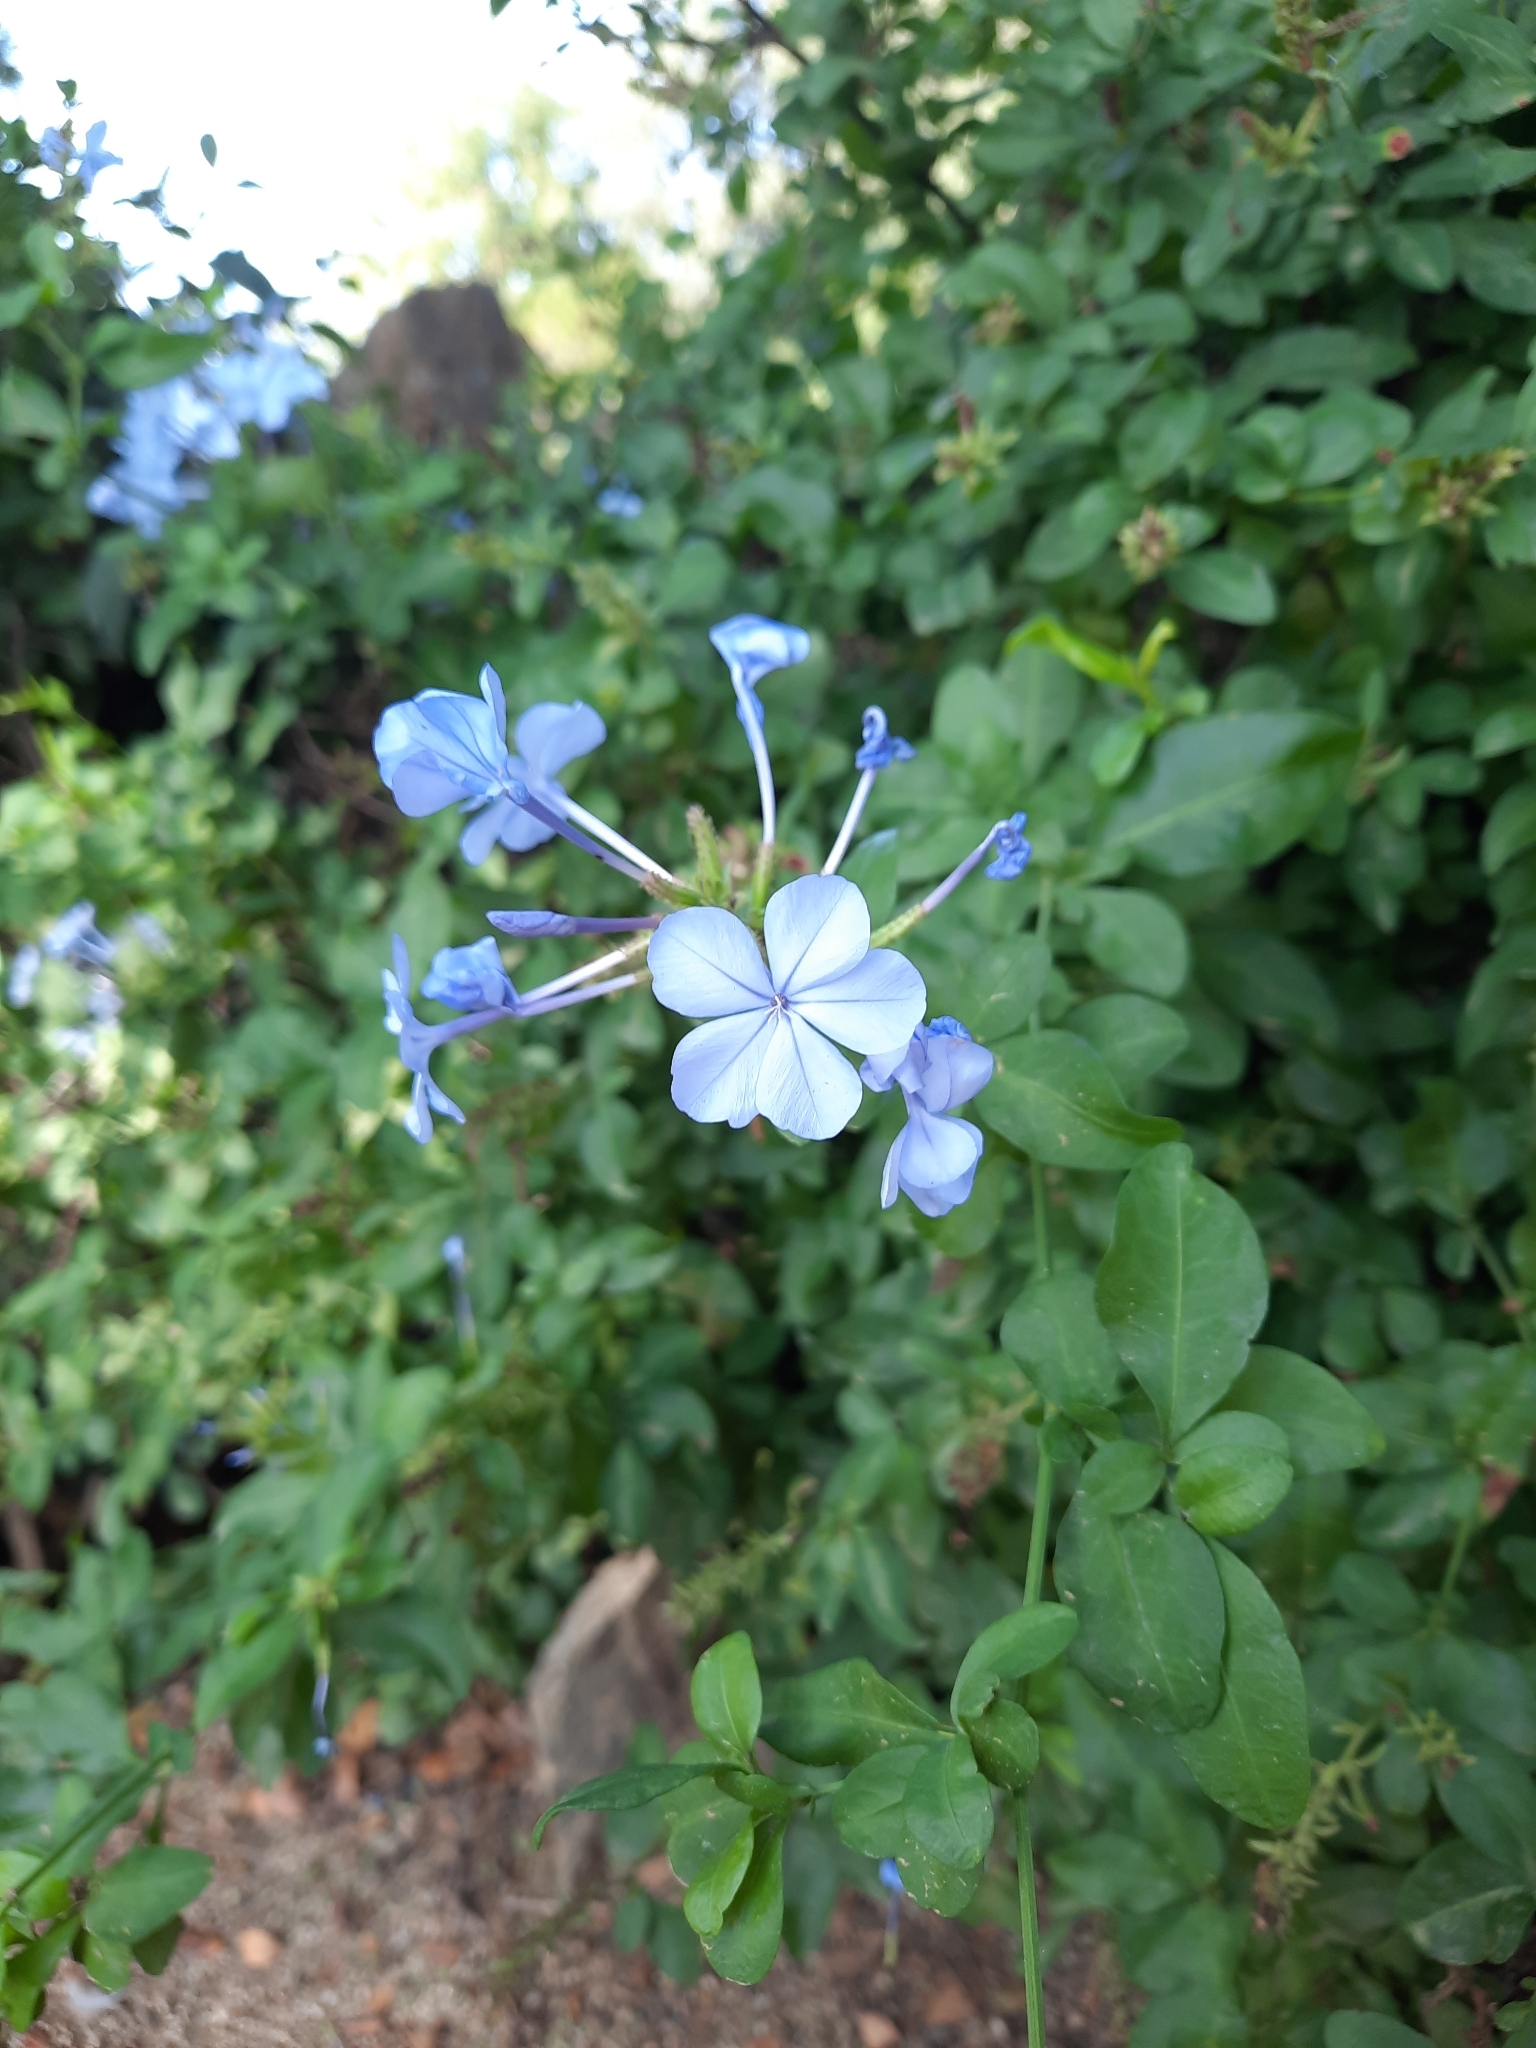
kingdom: Plantae
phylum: Tracheophyta
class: Magnoliopsida
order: Caryophyllales
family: Plumbaginaceae
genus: Plumbago
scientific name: Plumbago auriculata
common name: Cape leadwort
